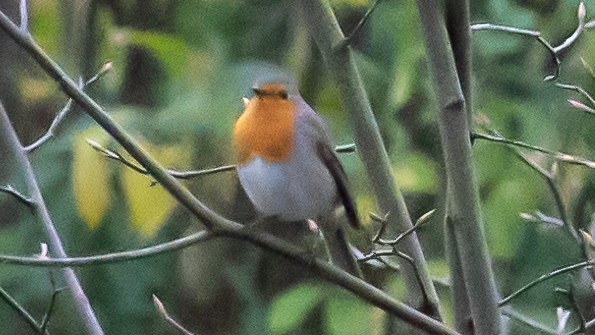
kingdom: Animalia
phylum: Chordata
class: Aves
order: Passeriformes
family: Muscicapidae
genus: Erithacus
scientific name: Erithacus rubecula
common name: European robin
